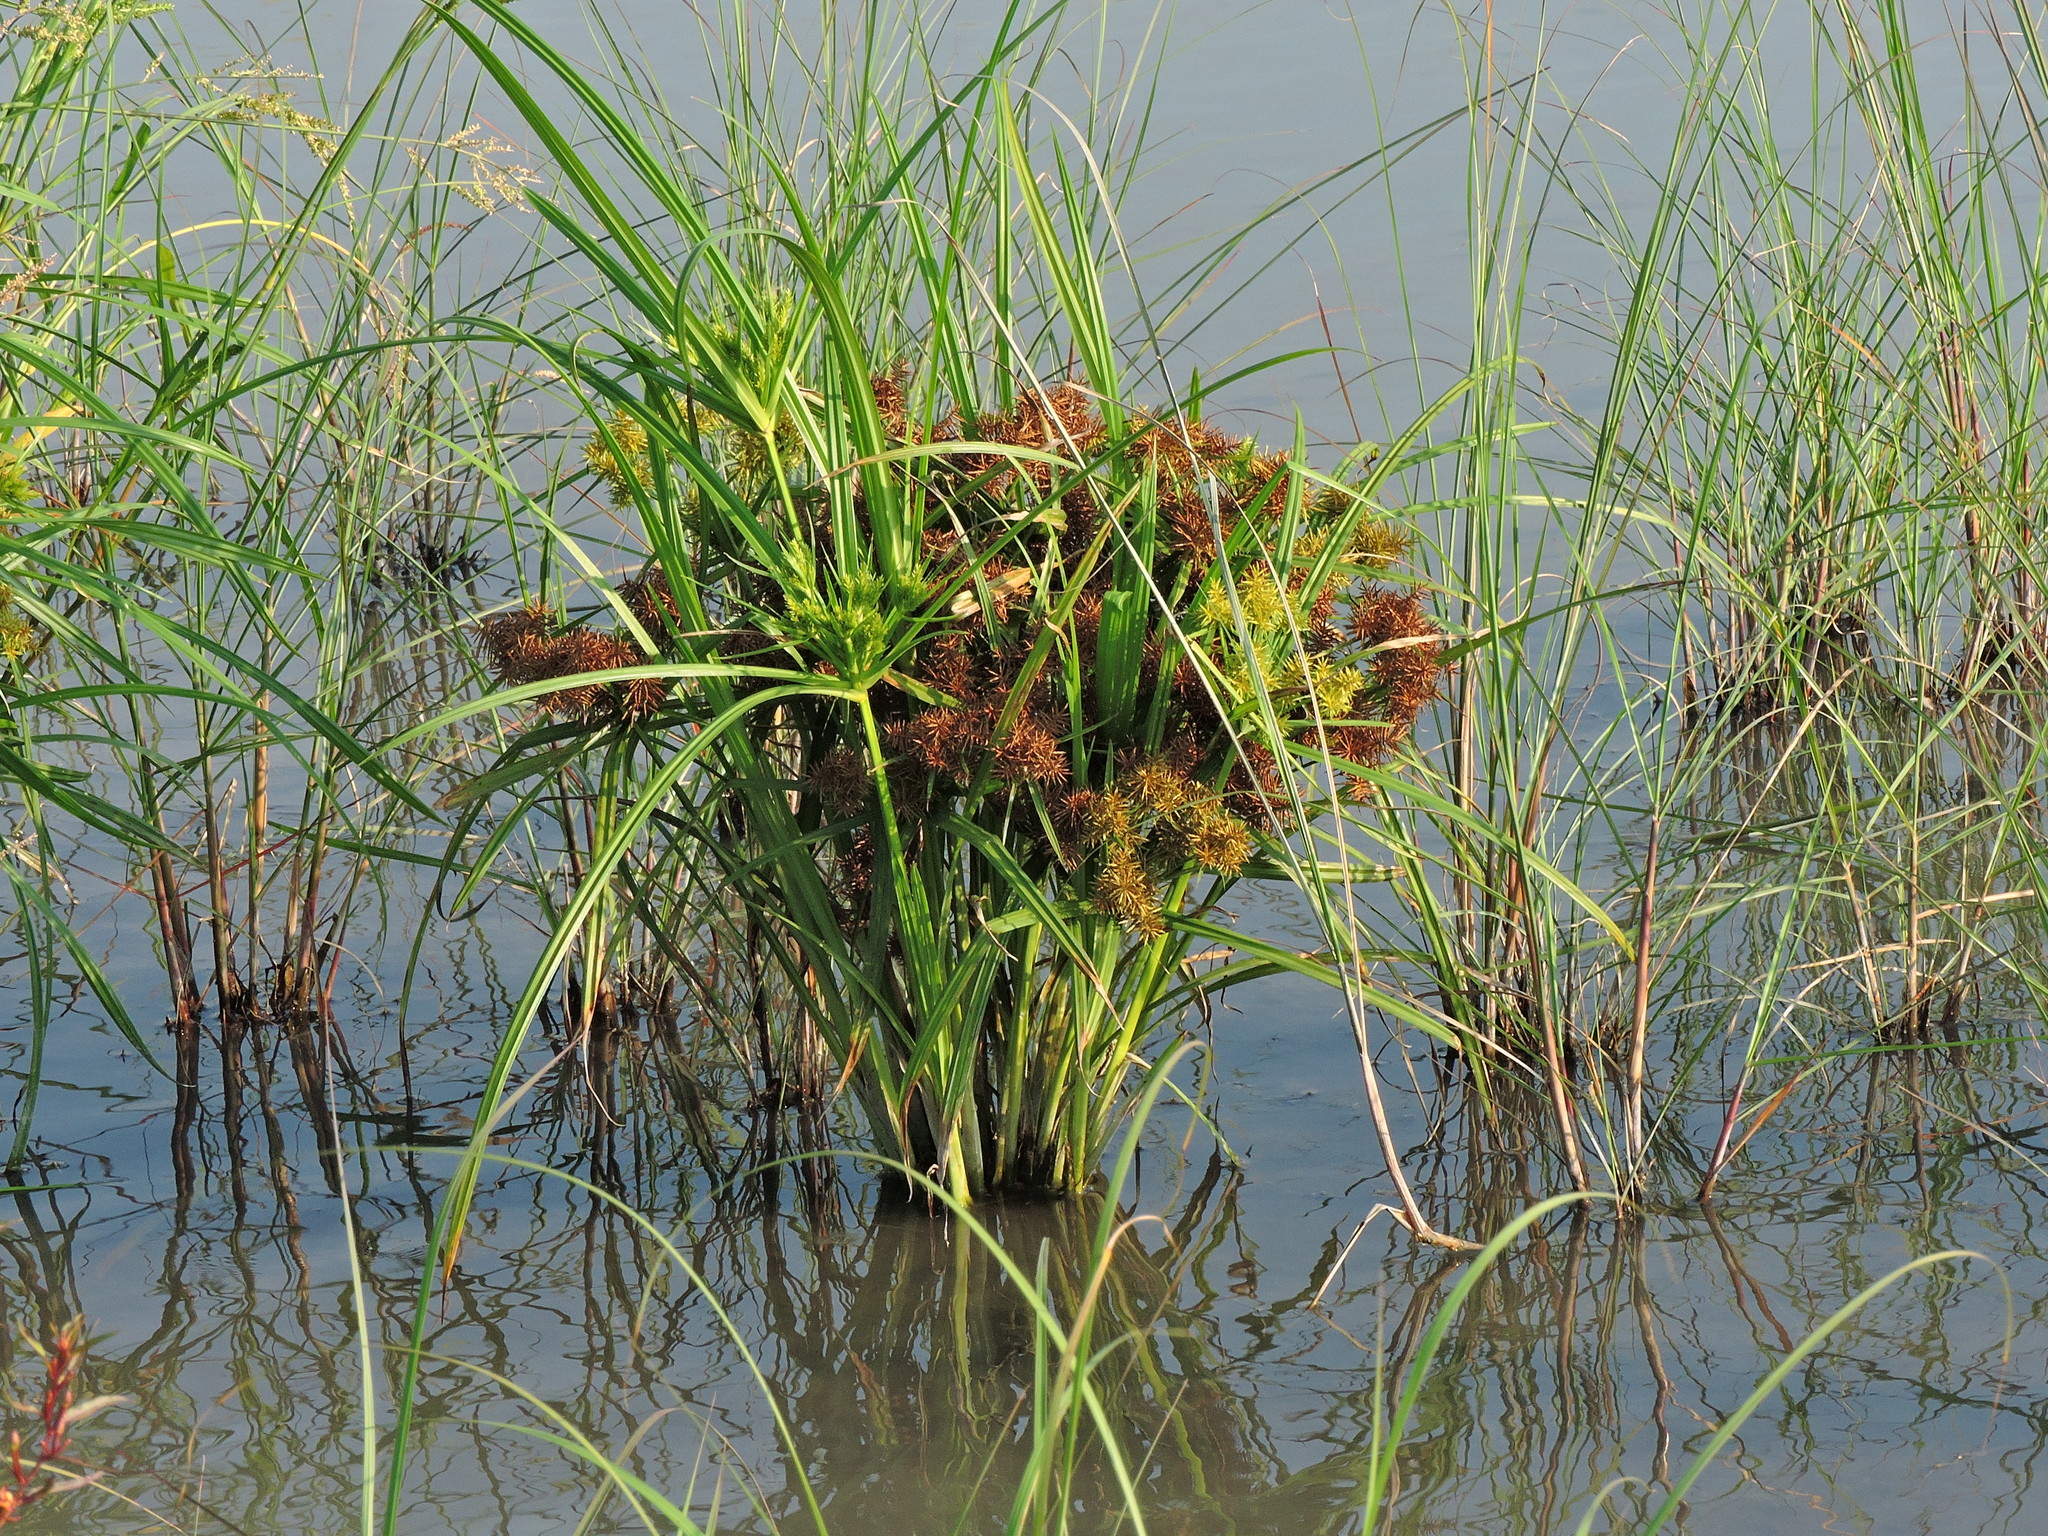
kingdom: Plantae
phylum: Tracheophyta
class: Liliopsida
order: Poales
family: Cyperaceae
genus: Cyperus
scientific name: Cyperus odoratus
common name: Fragrant flatsedge
